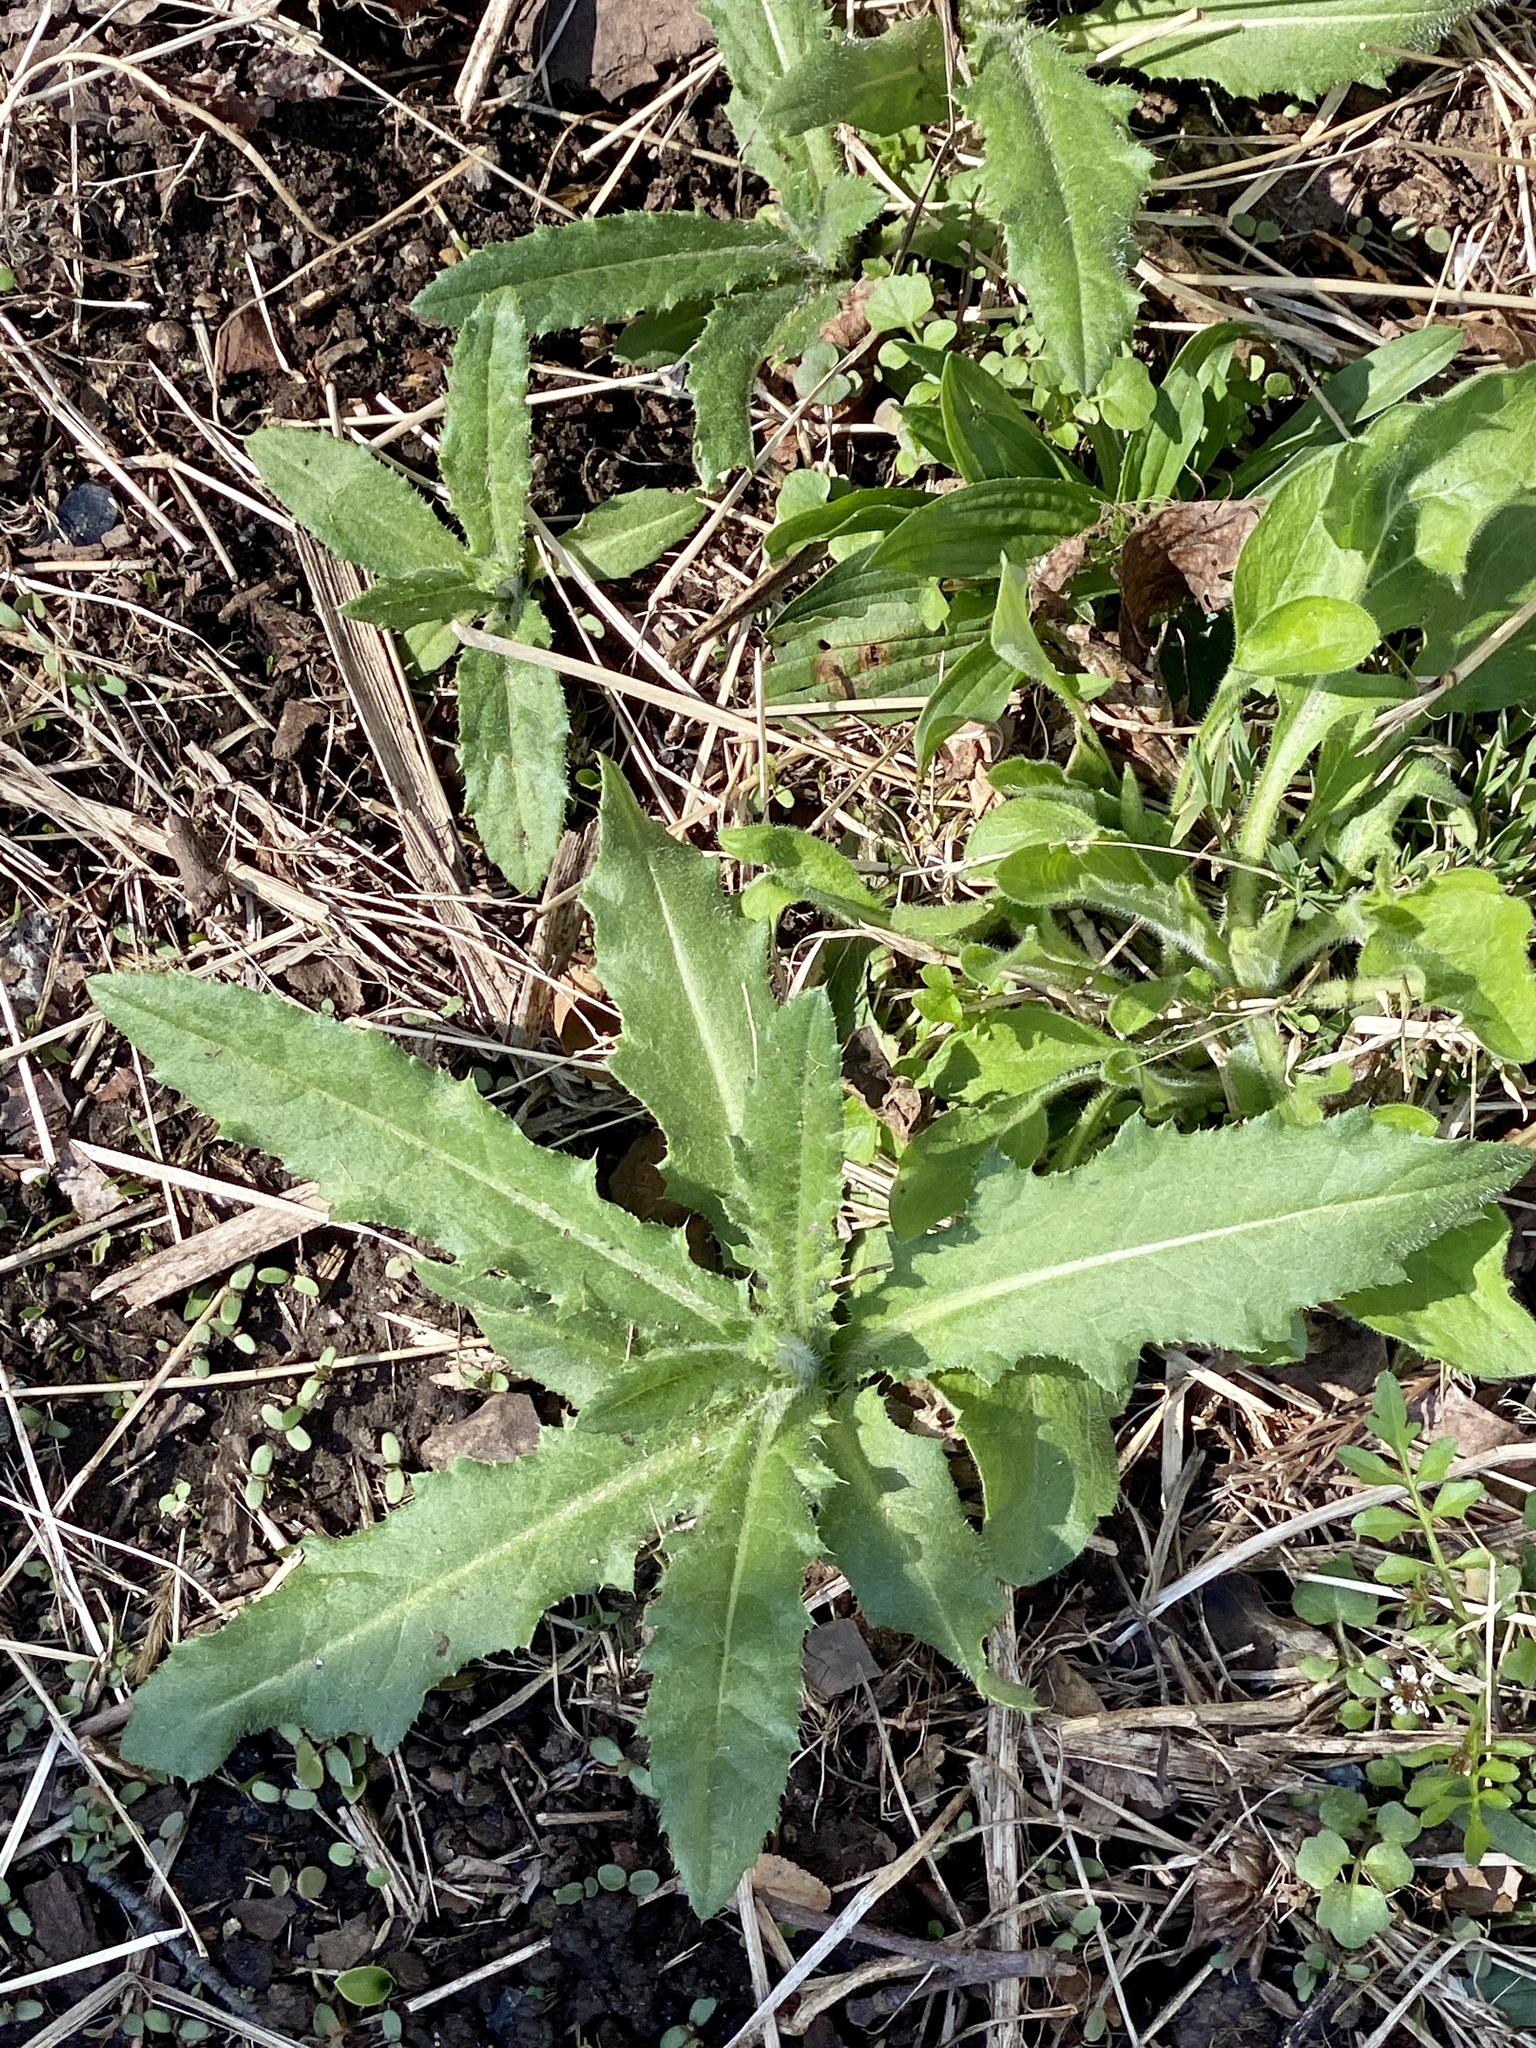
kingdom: Plantae
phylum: Tracheophyta
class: Magnoliopsida
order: Asterales
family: Asteraceae
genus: Cirsium
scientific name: Cirsium arvense
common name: Creeping thistle
